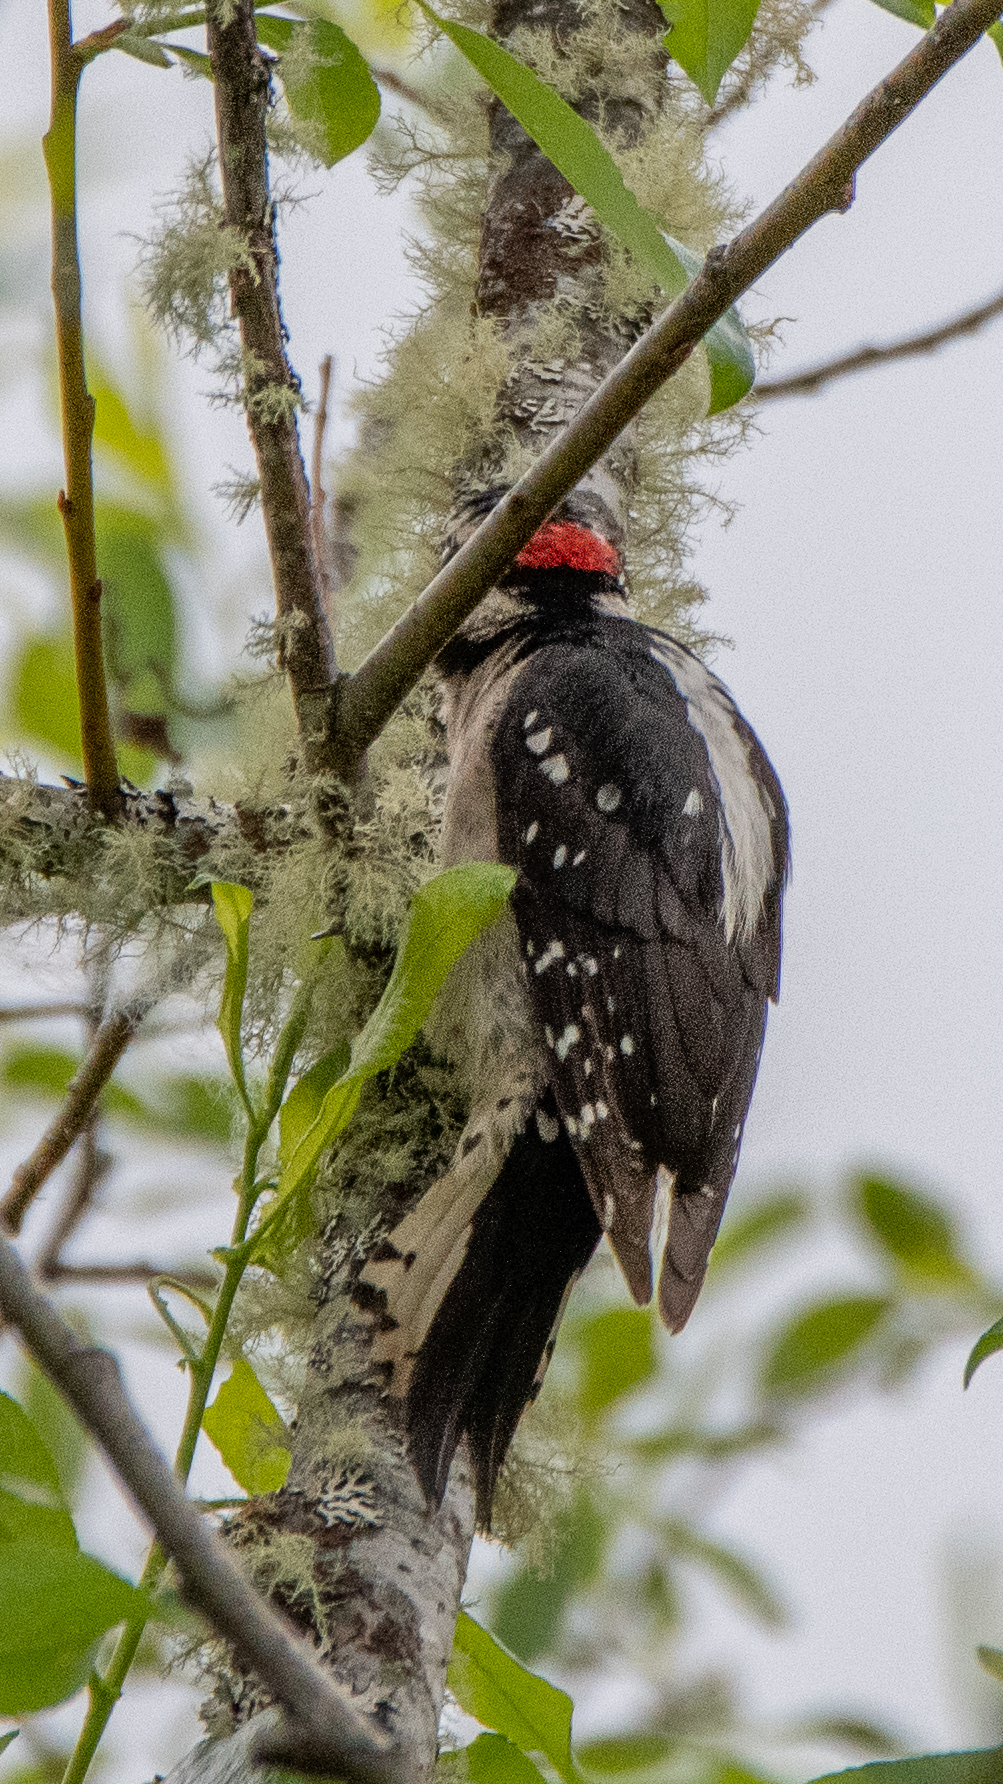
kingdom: Animalia
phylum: Chordata
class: Aves
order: Piciformes
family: Picidae
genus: Dryobates
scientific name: Dryobates pubescens
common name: Downy woodpecker
